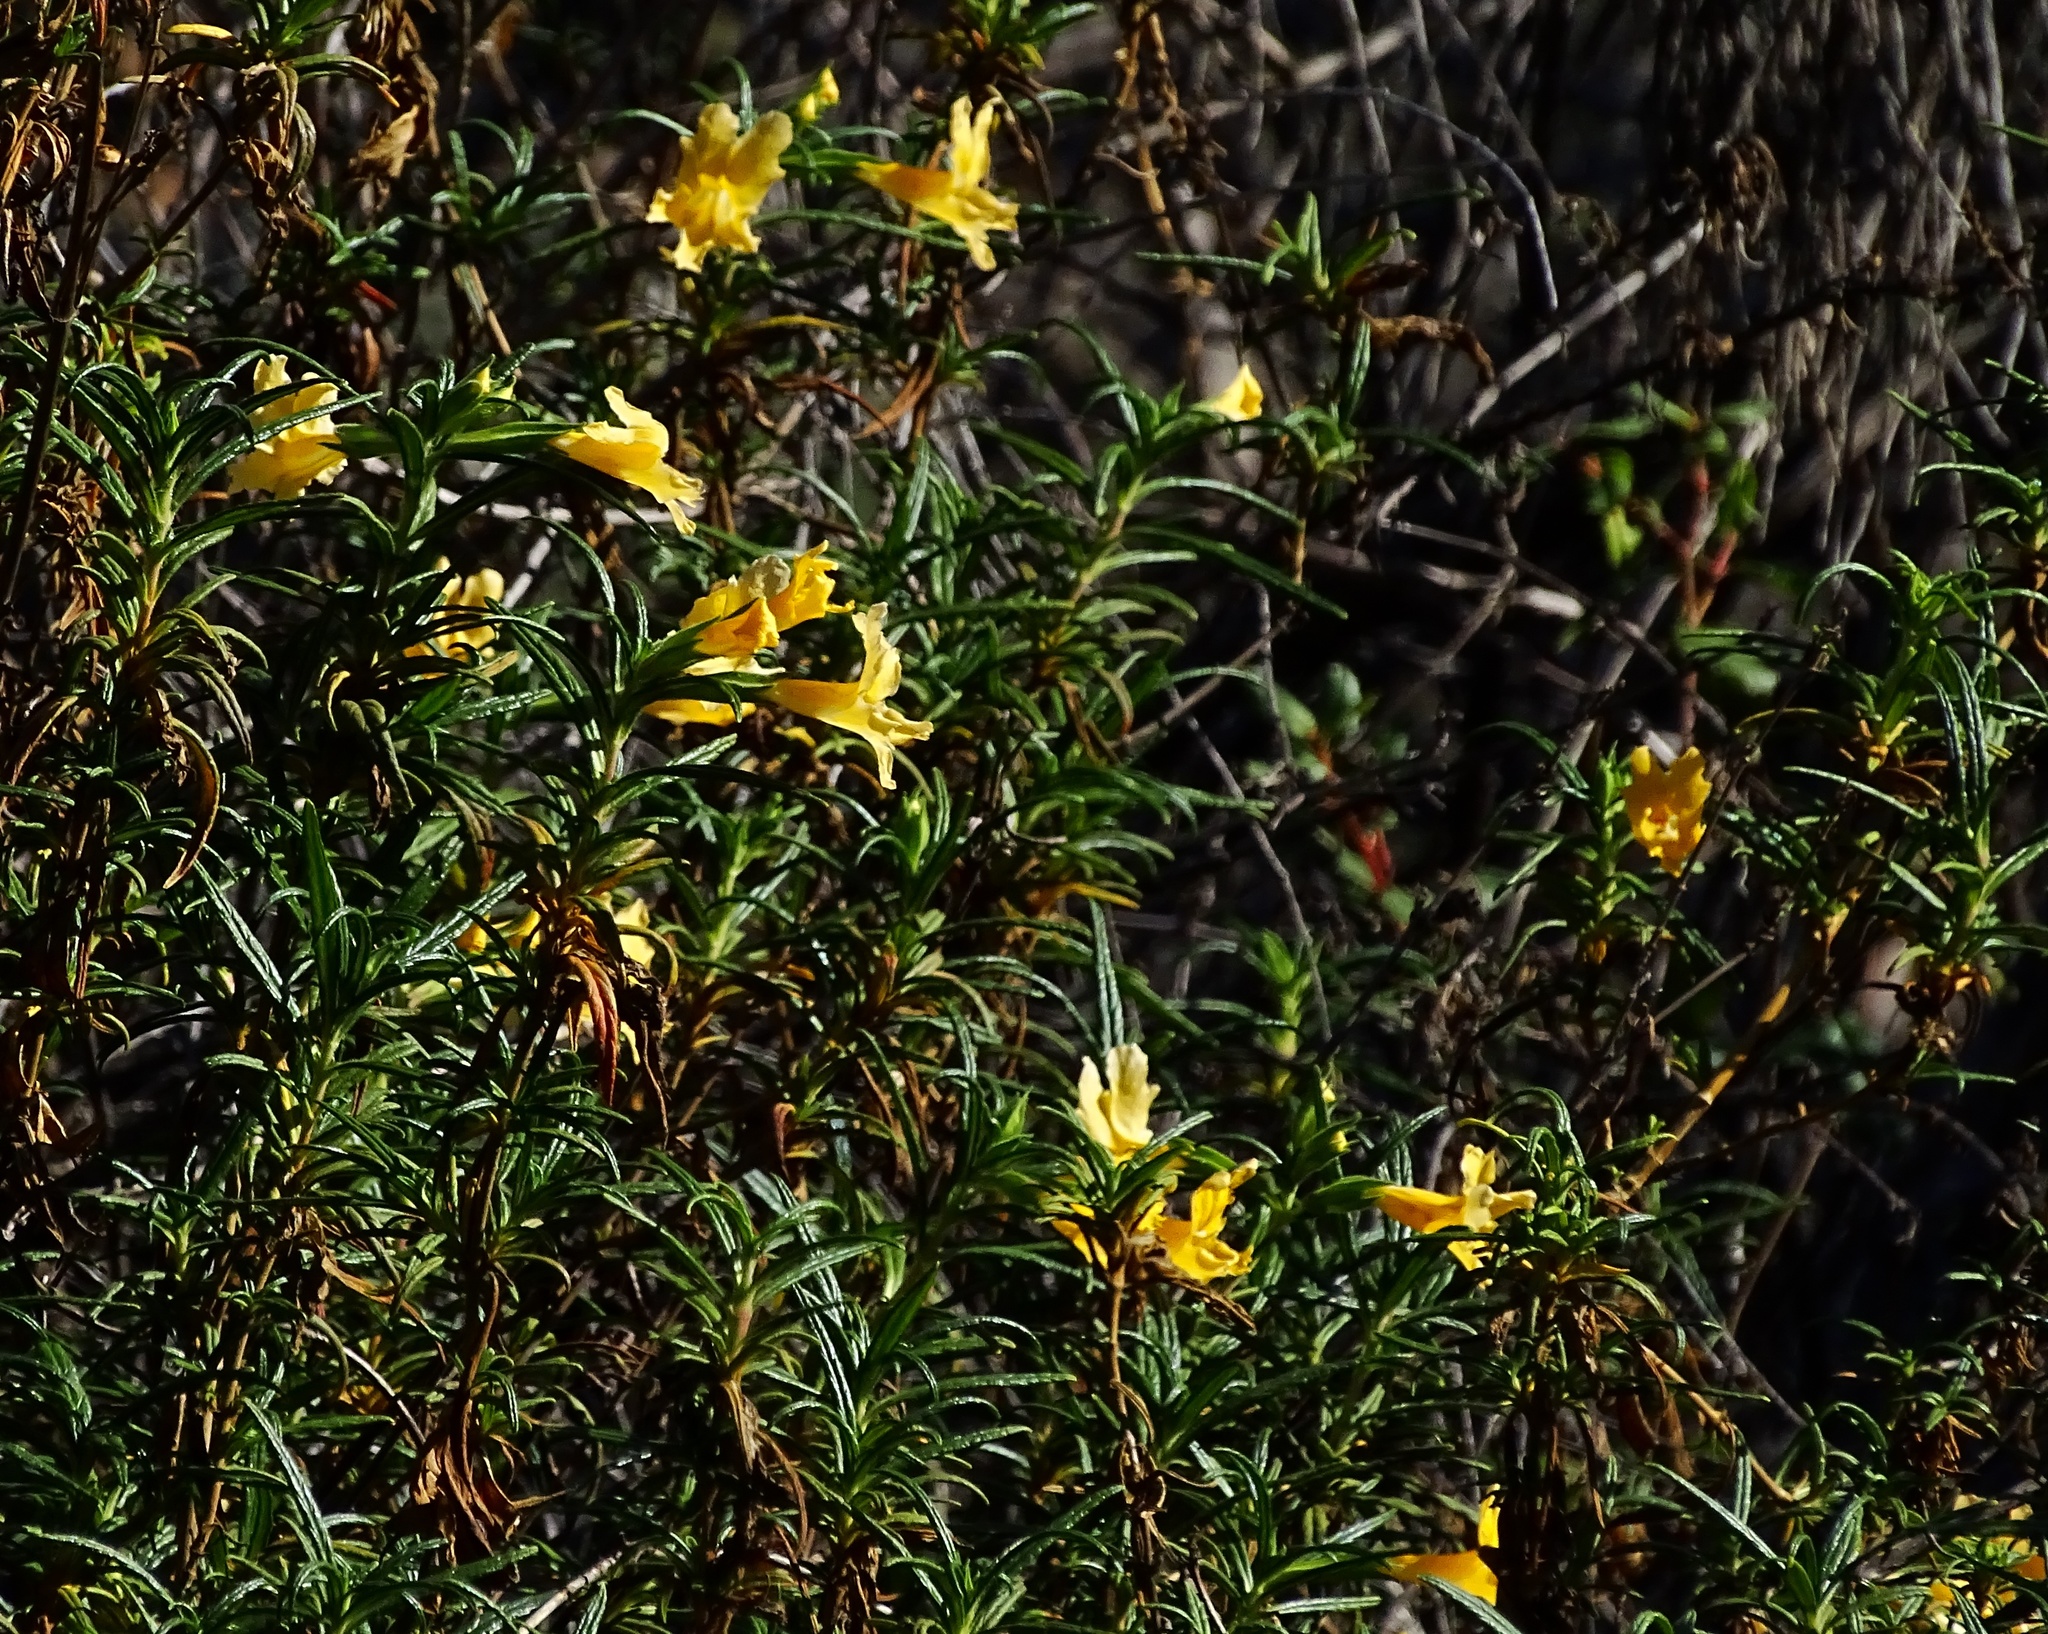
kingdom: Plantae
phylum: Tracheophyta
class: Magnoliopsida
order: Lamiales
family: Phrymaceae
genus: Diplacus
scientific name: Diplacus australis
